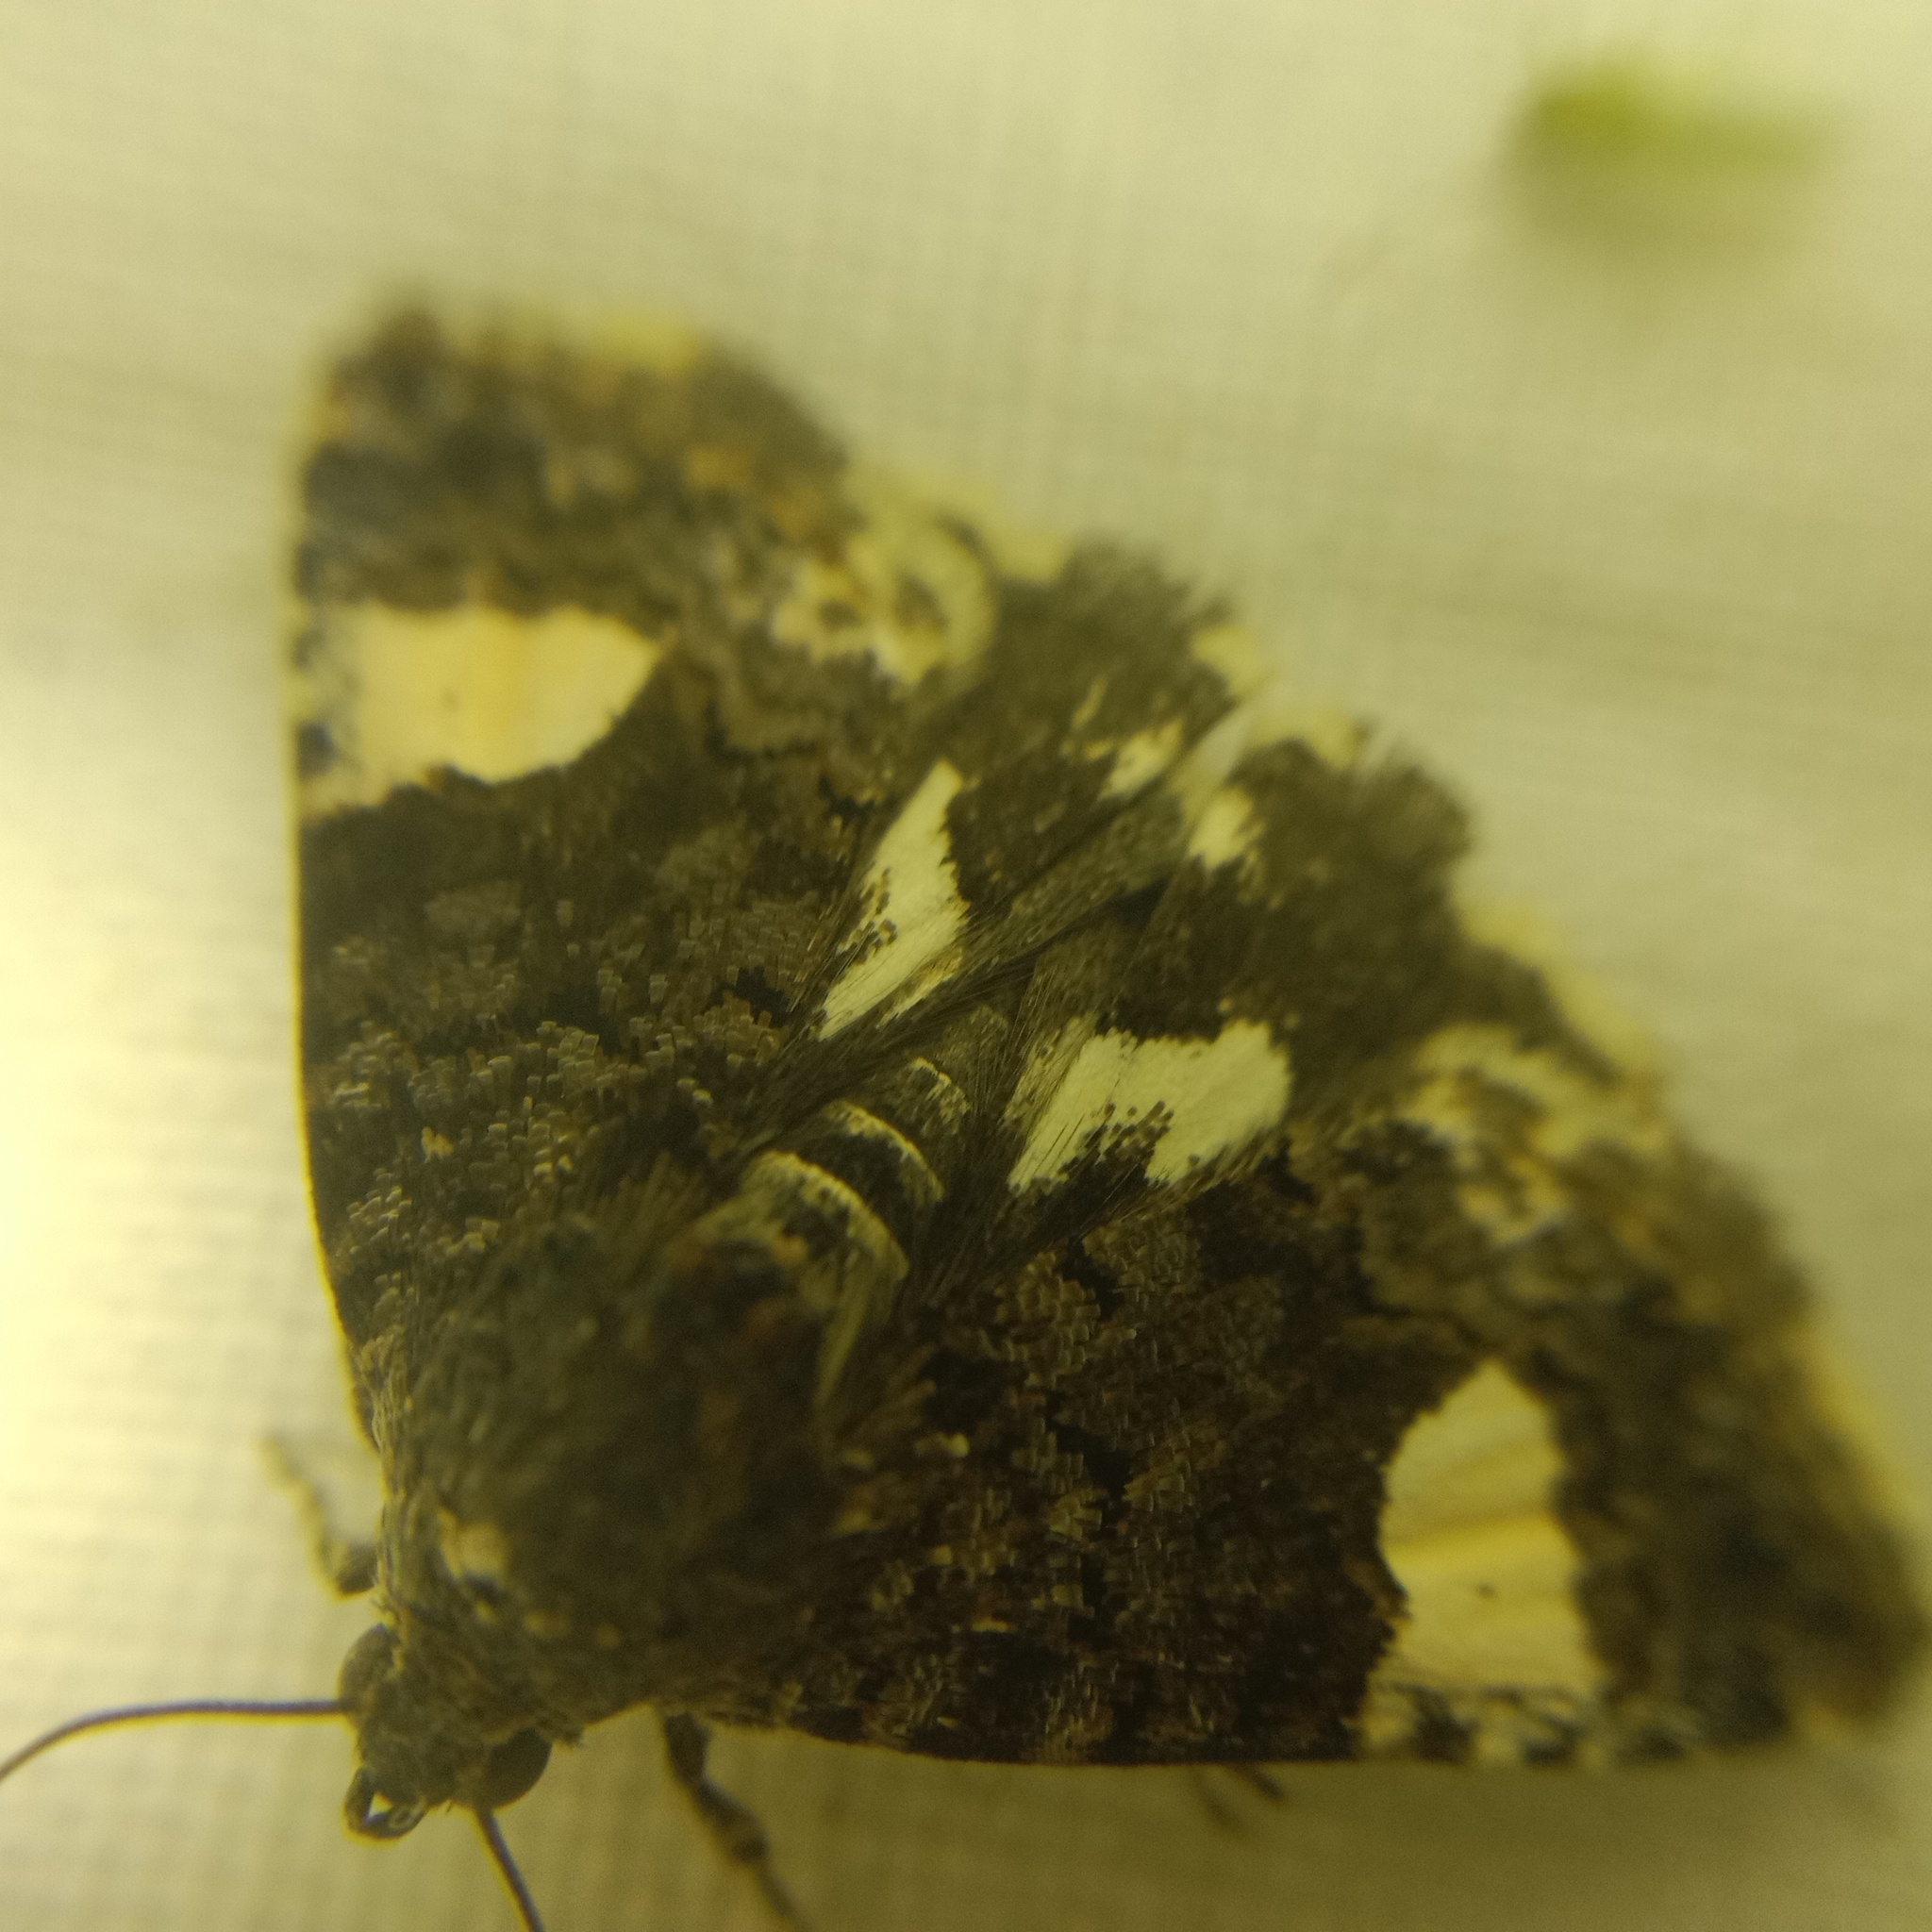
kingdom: Animalia
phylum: Arthropoda
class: Insecta
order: Lepidoptera
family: Erebidae
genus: Tyta
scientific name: Tyta luctuosa
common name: Four-spotted
